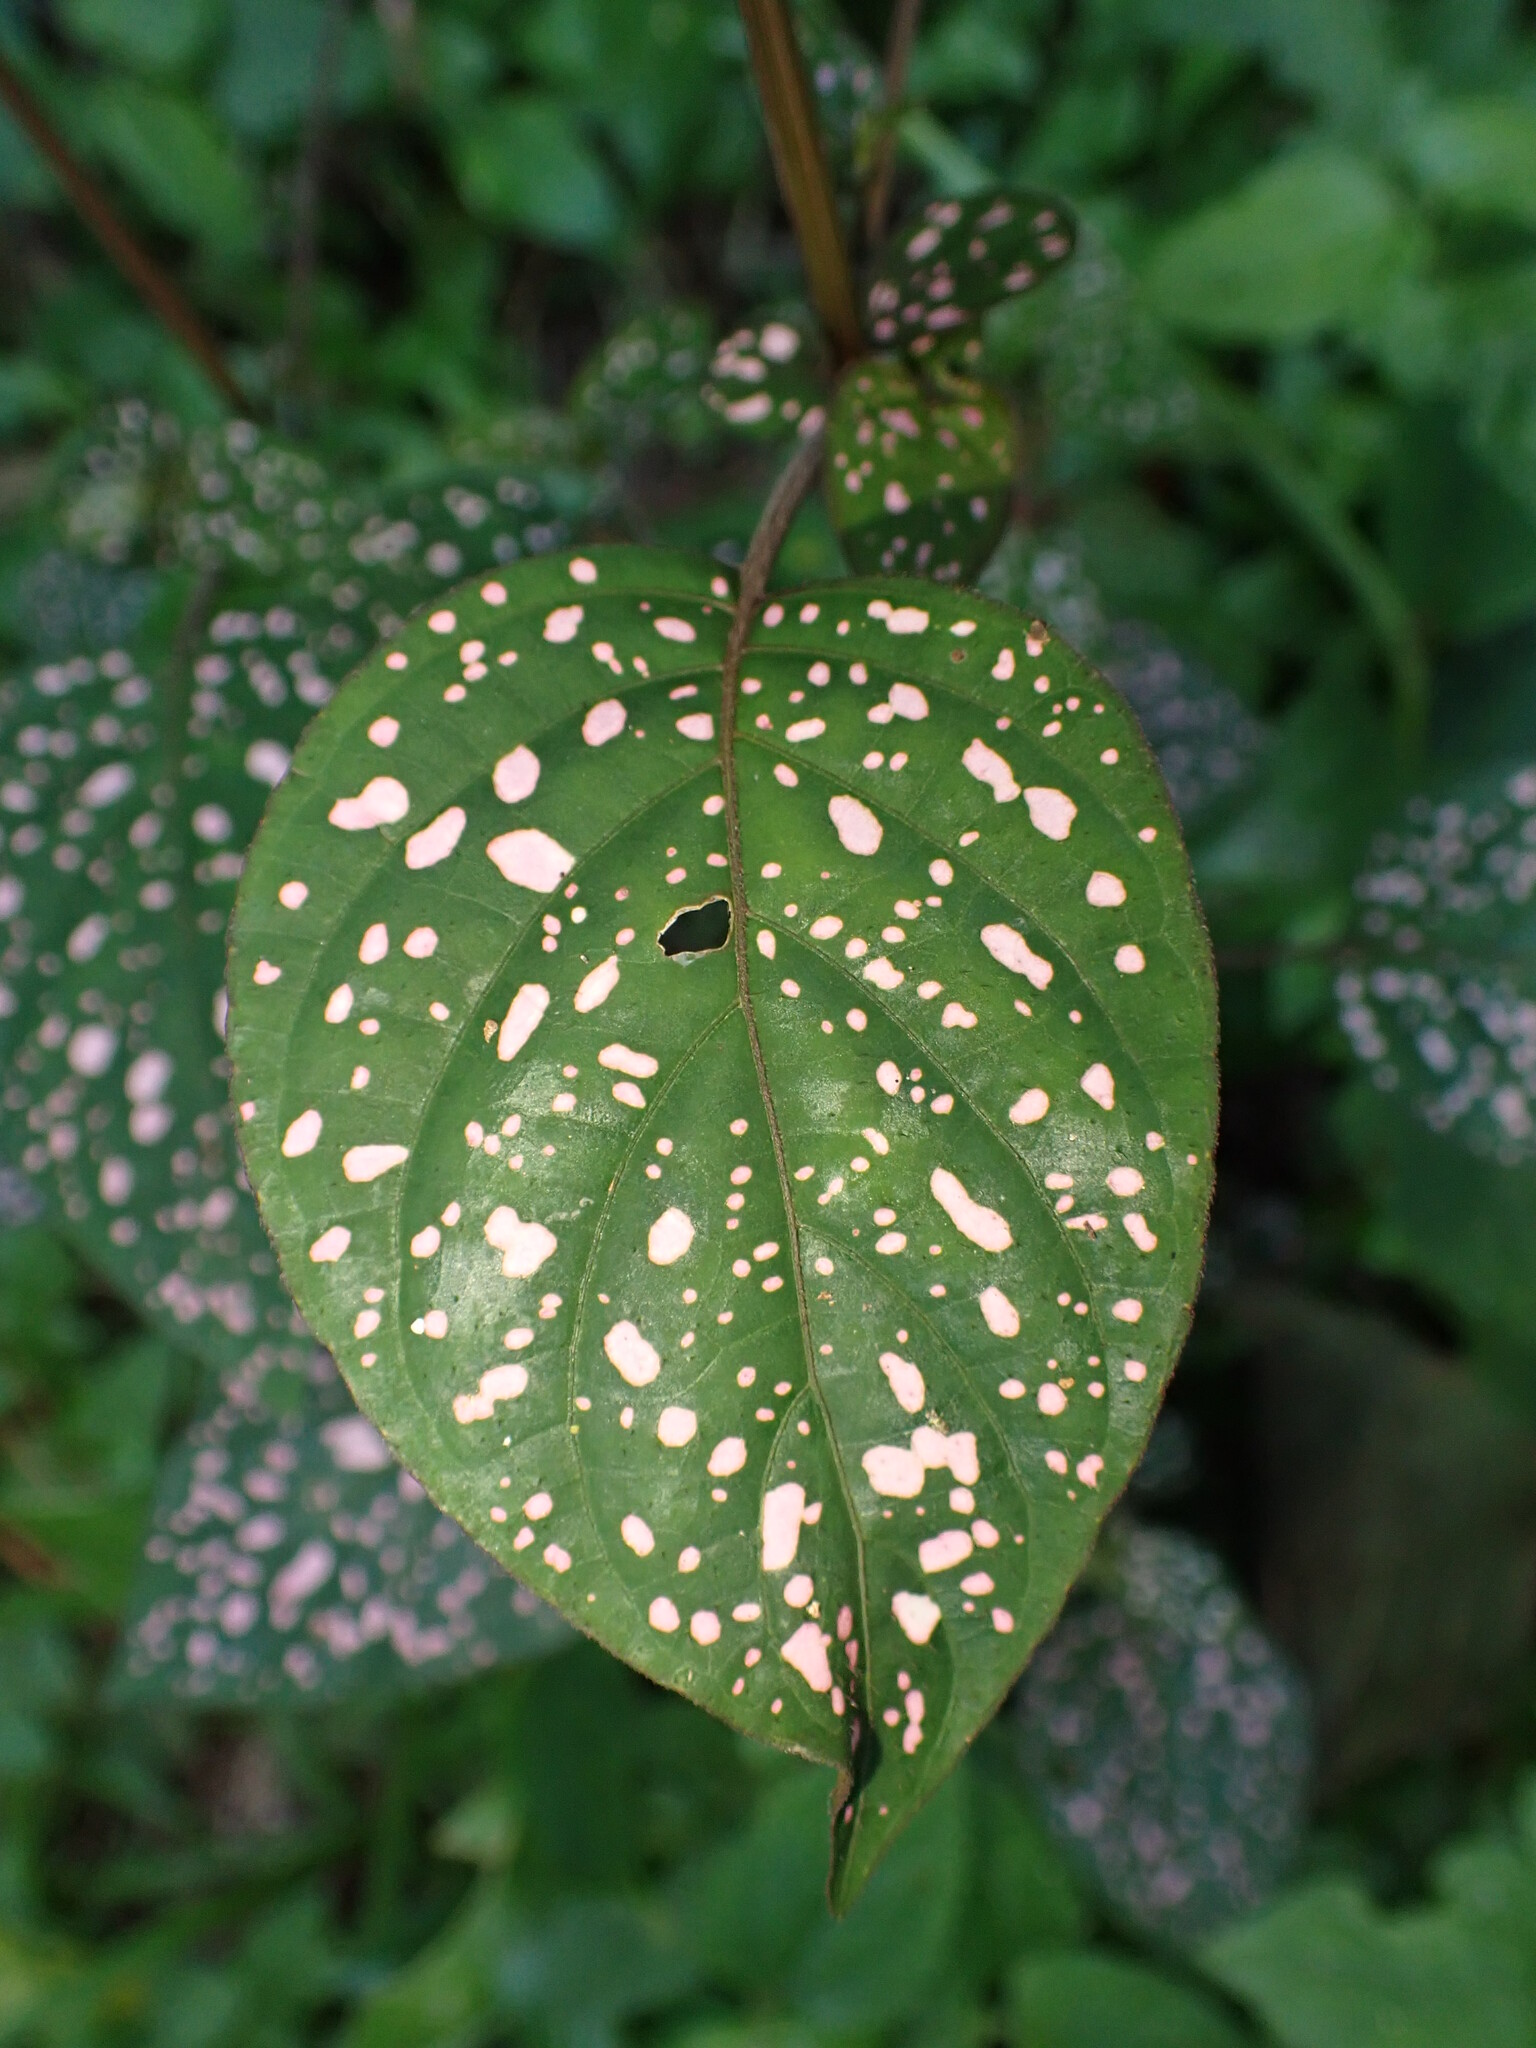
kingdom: Plantae
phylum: Tracheophyta
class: Magnoliopsida
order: Lamiales
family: Acanthaceae
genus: Hypoestes
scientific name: Hypoestes phyllostachya
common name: Polkadot-plant
